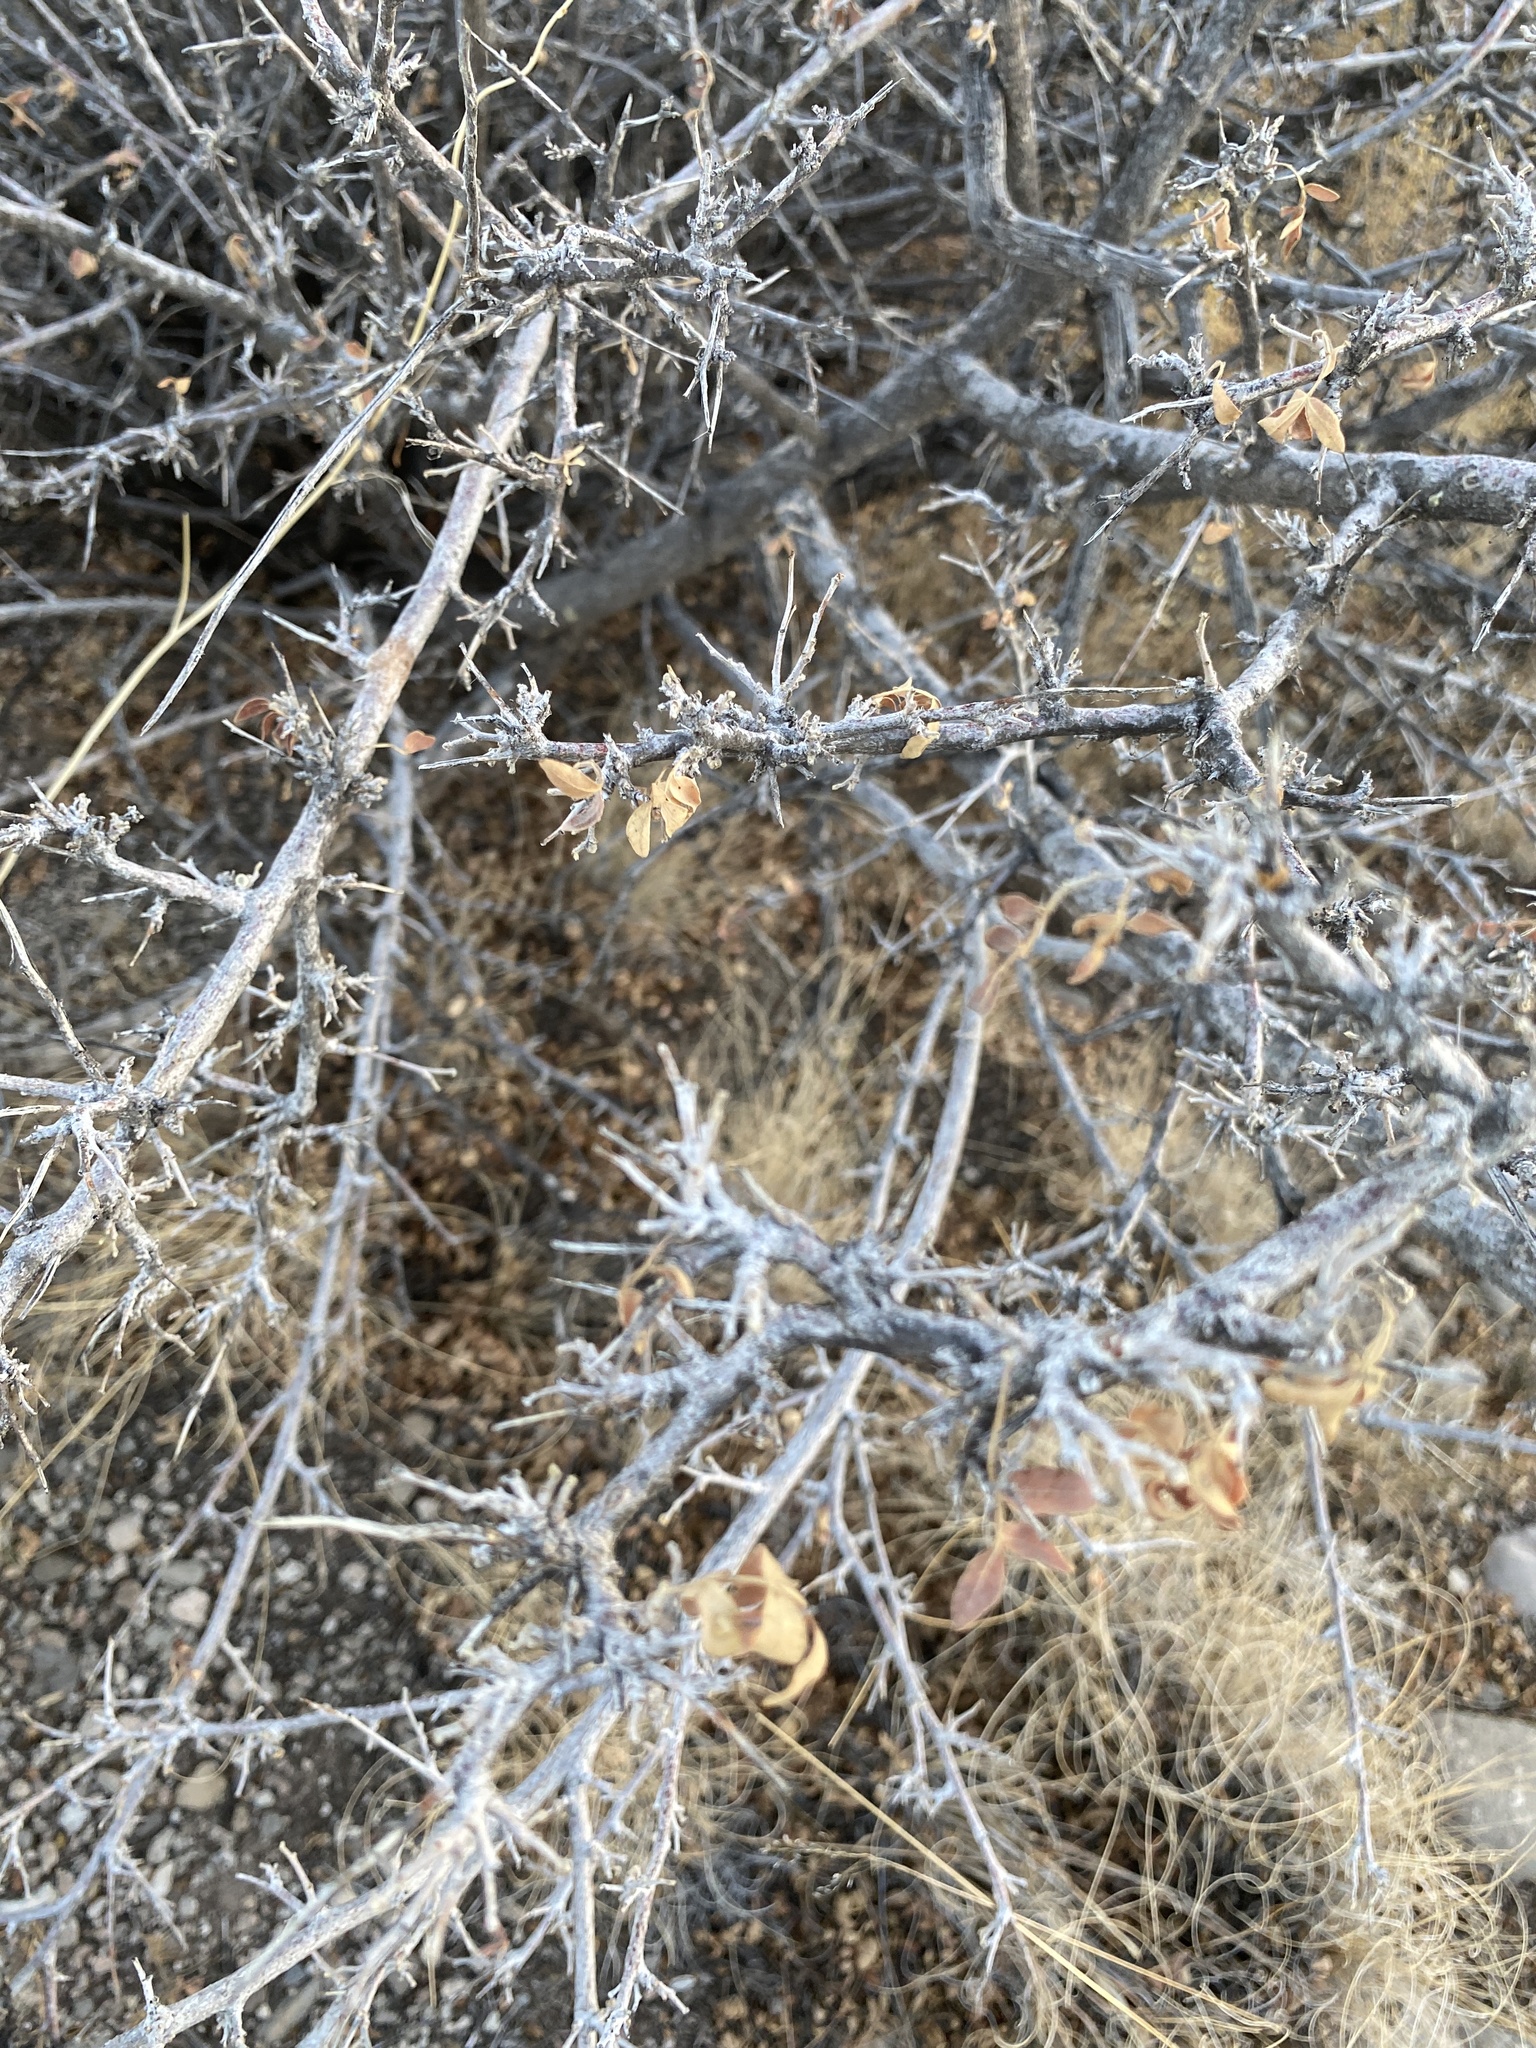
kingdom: Plantae
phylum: Tracheophyta
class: Magnoliopsida
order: Sapindales
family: Anacardiaceae
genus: Rhus
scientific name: Rhus microphylla
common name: Desert sumac
